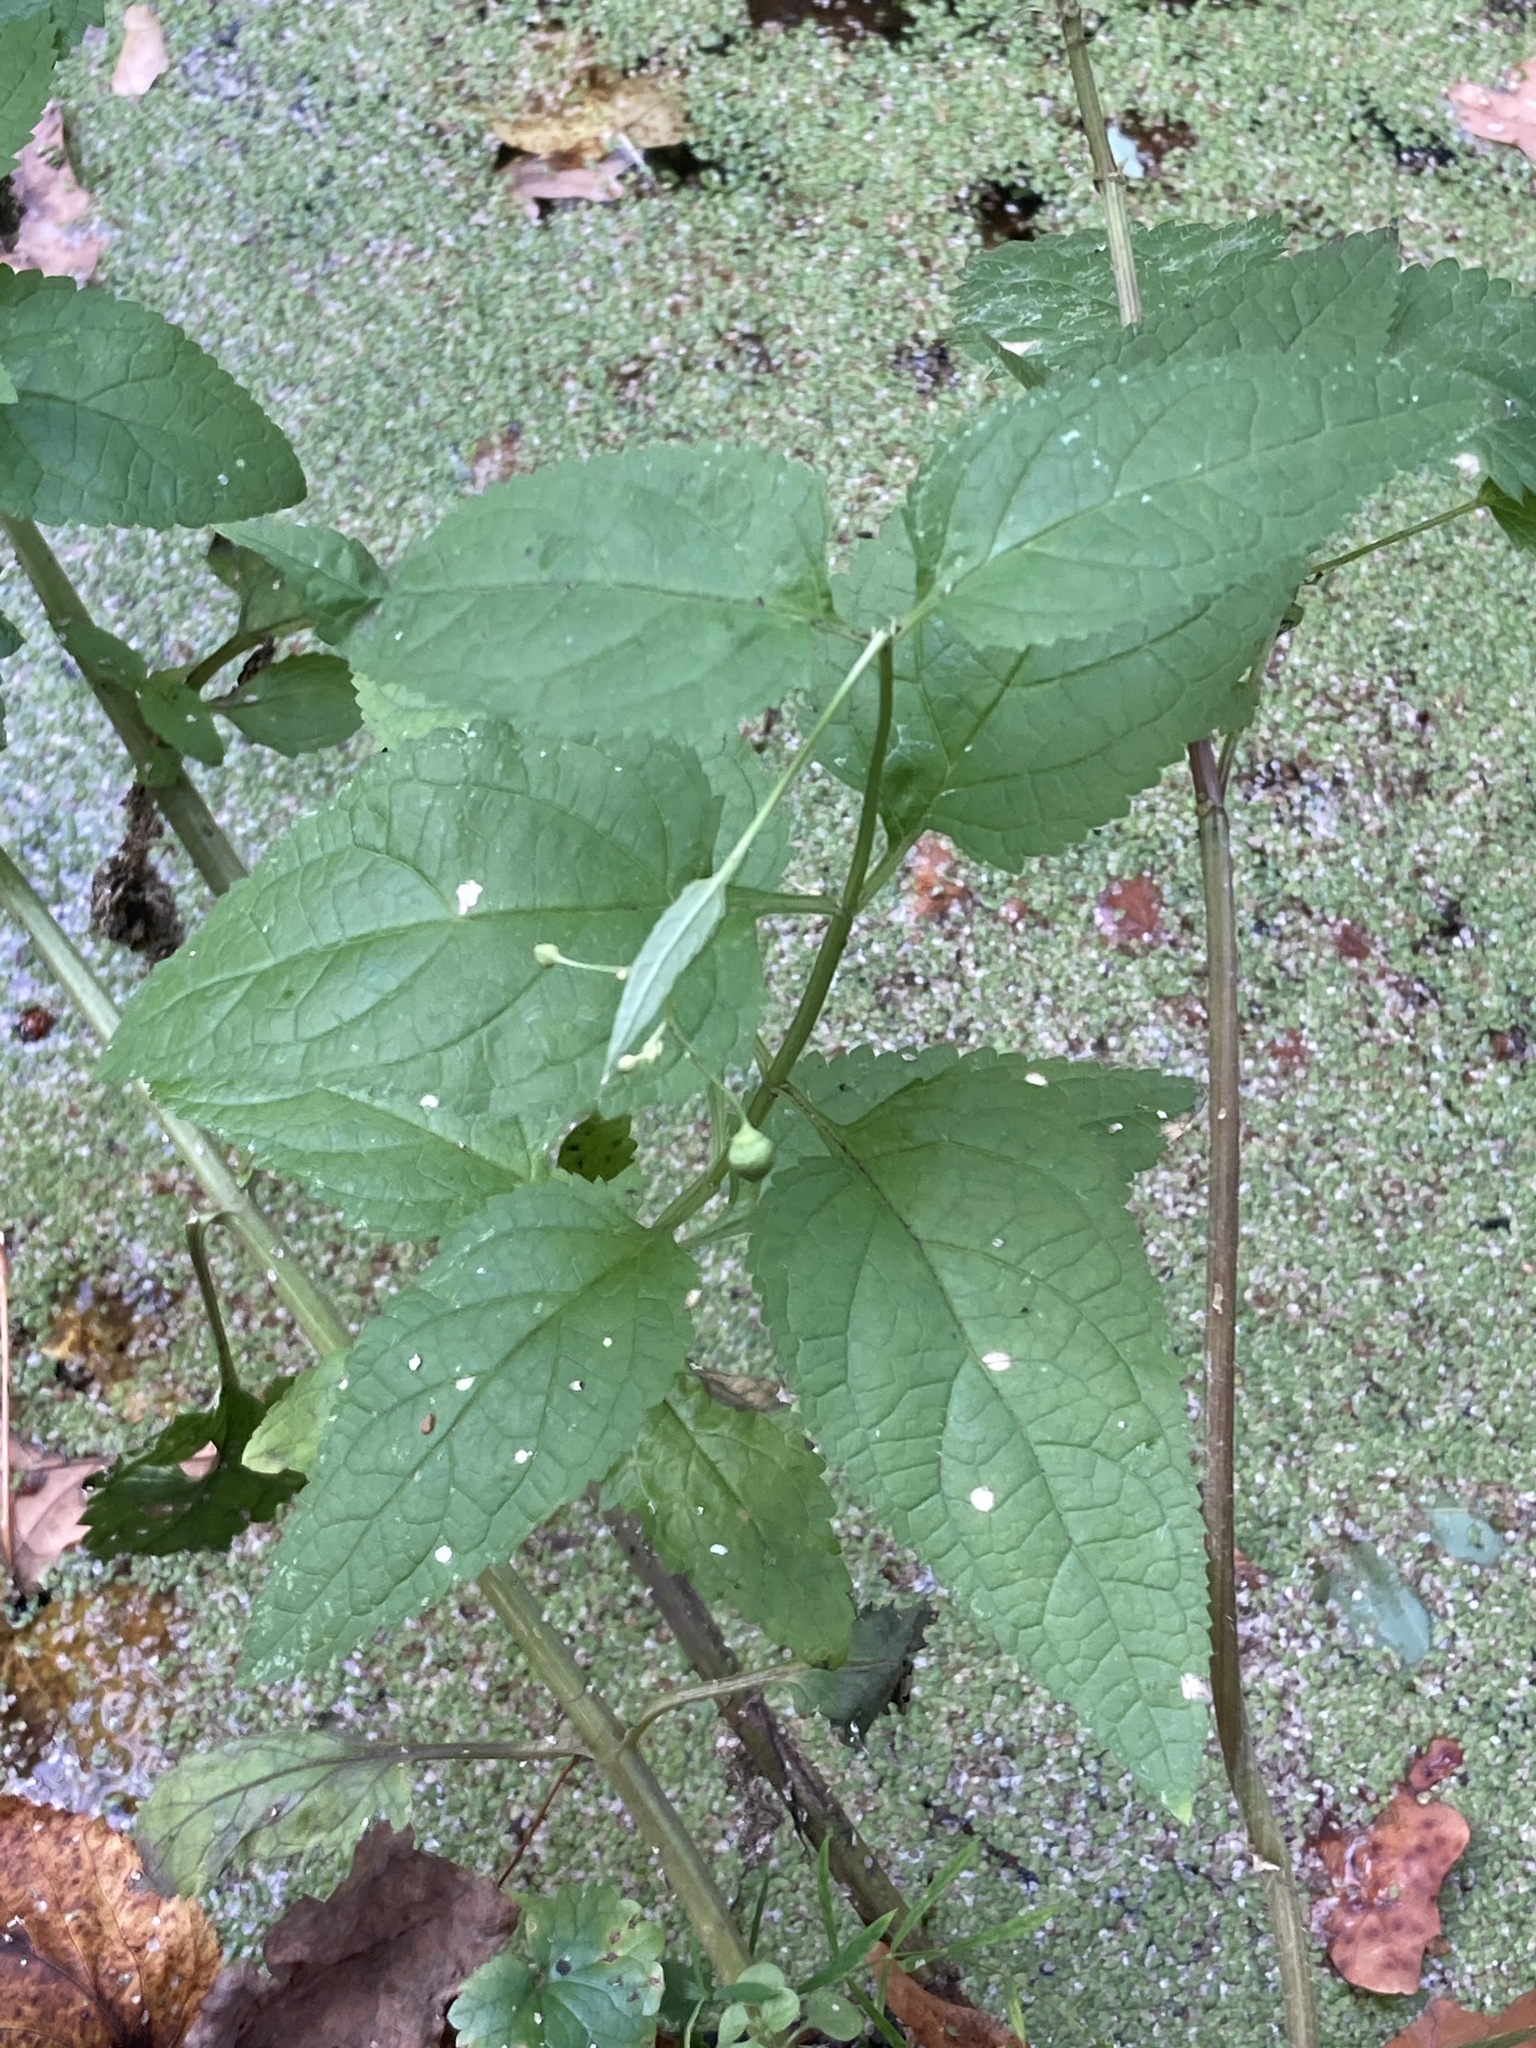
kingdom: Plantae
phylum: Tracheophyta
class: Magnoliopsida
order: Lamiales
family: Scrophulariaceae
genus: Scrophularia
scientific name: Scrophularia nodosa
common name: Common figwort
